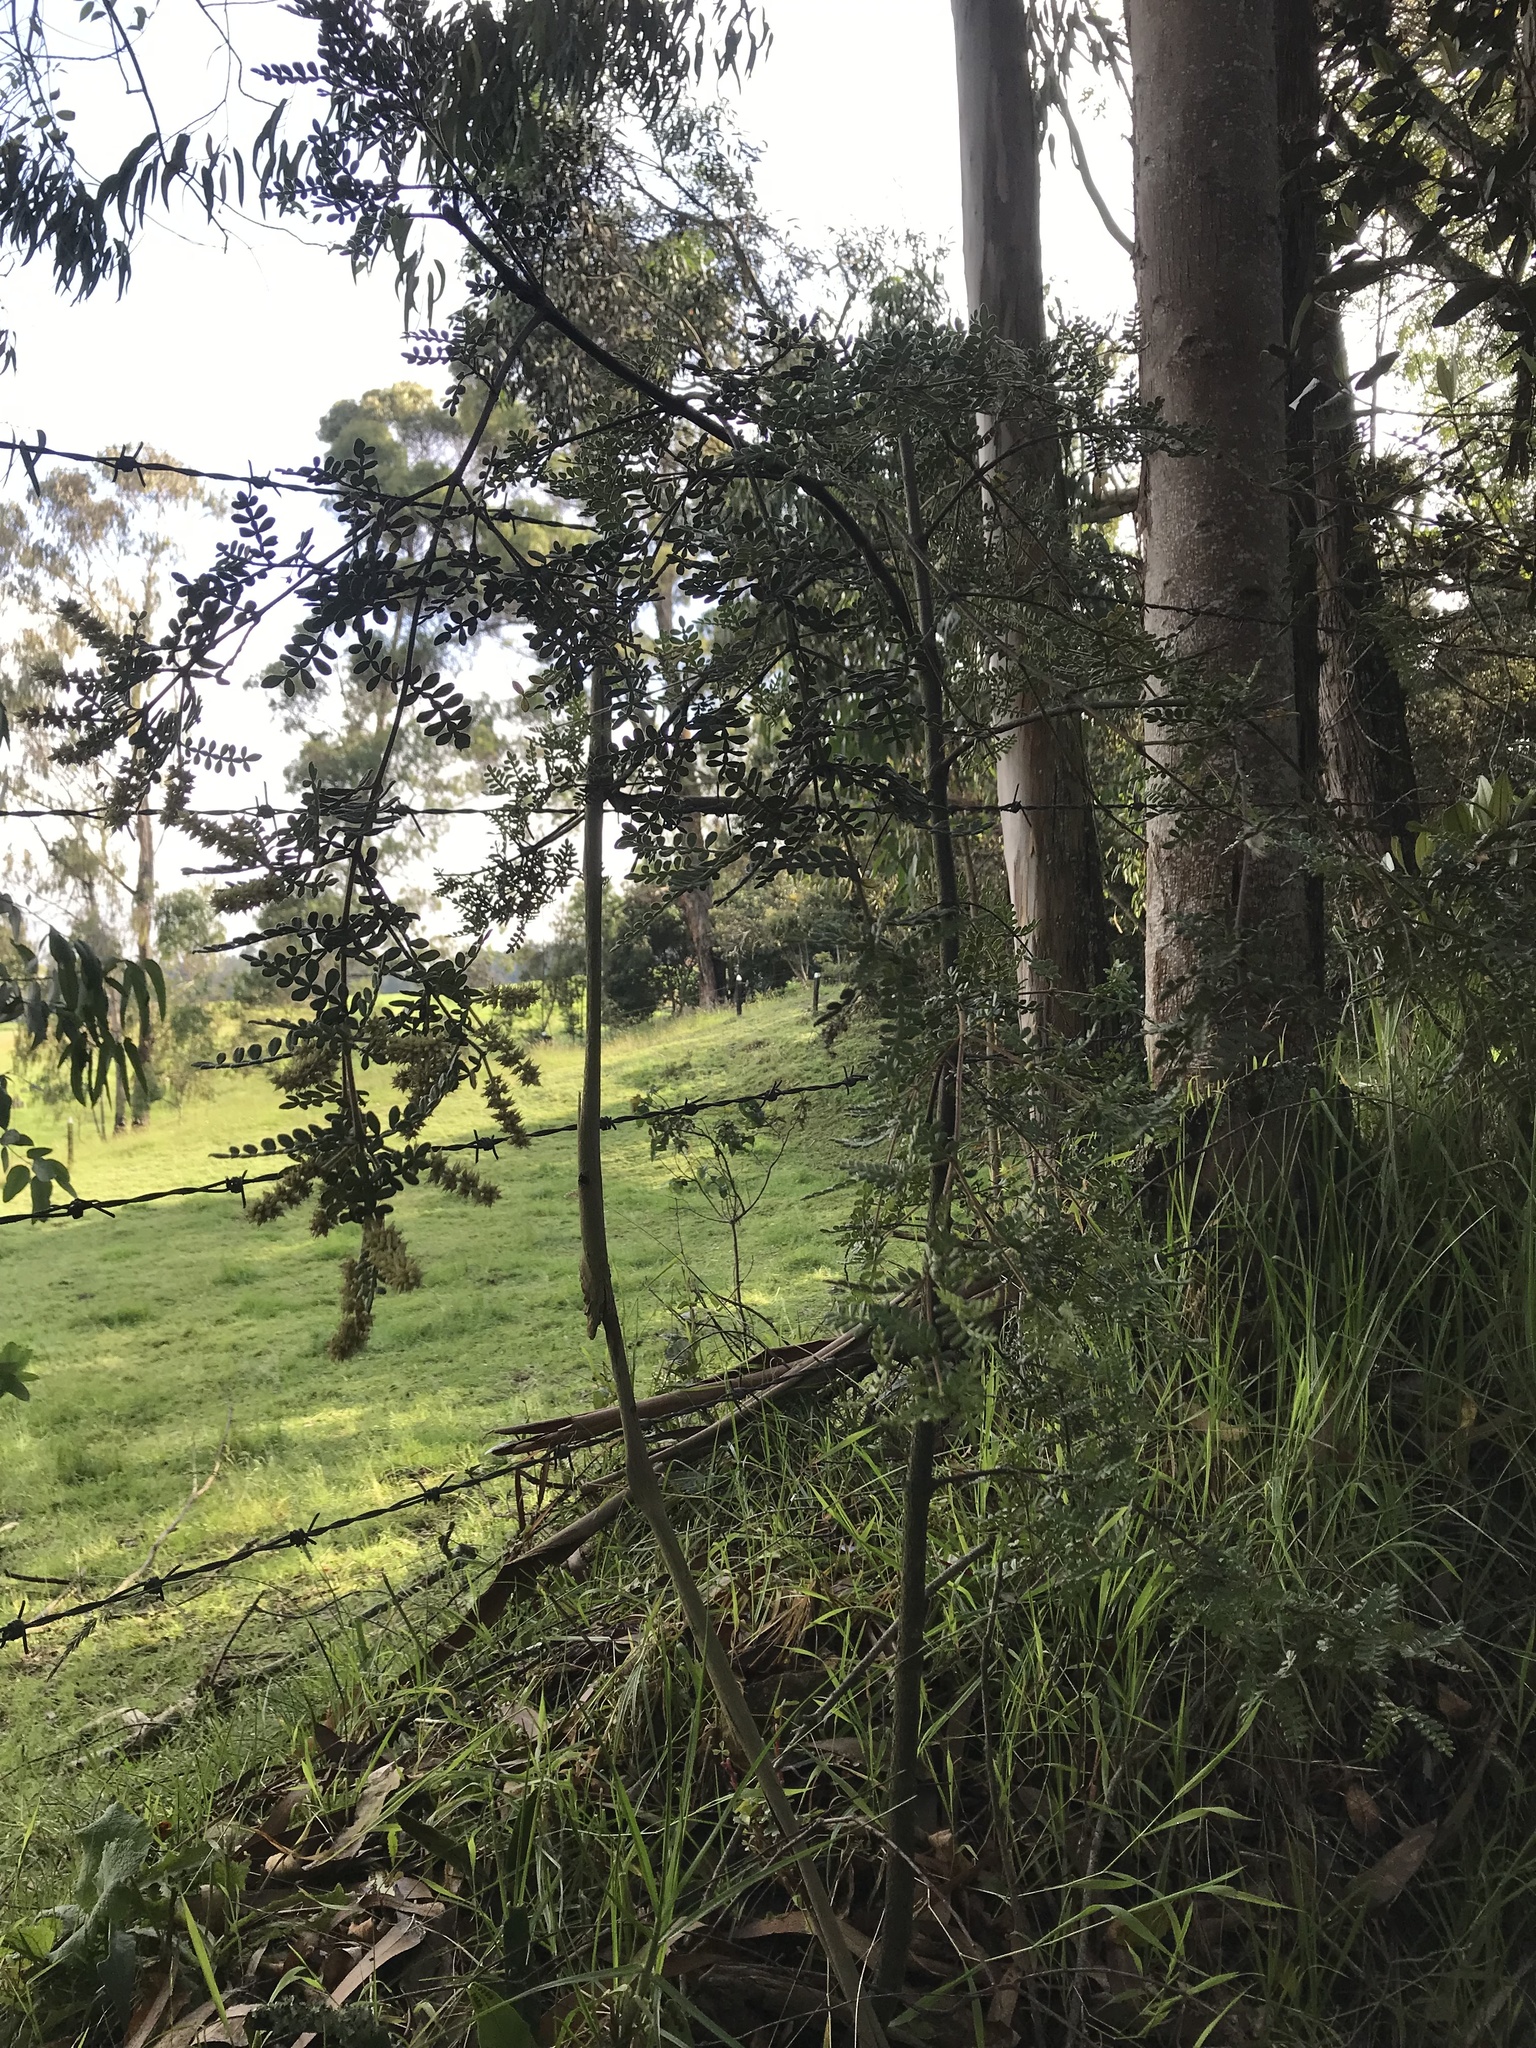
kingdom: Plantae
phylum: Tracheophyta
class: Magnoliopsida
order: Oxalidales
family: Cunoniaceae
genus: Weinmannia
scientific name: Weinmannia tomentosa
